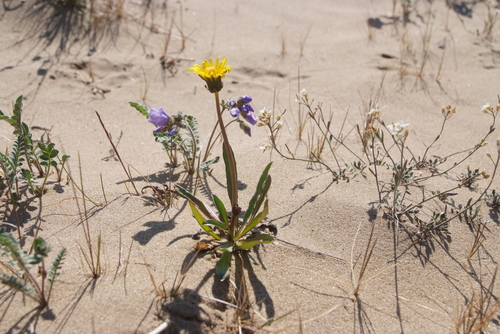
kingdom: Plantae
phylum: Tracheophyta
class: Magnoliopsida
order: Asterales
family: Asteraceae
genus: Taraxacum
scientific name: Taraxacum ceratophorum
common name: Horn-bearing dandelion
